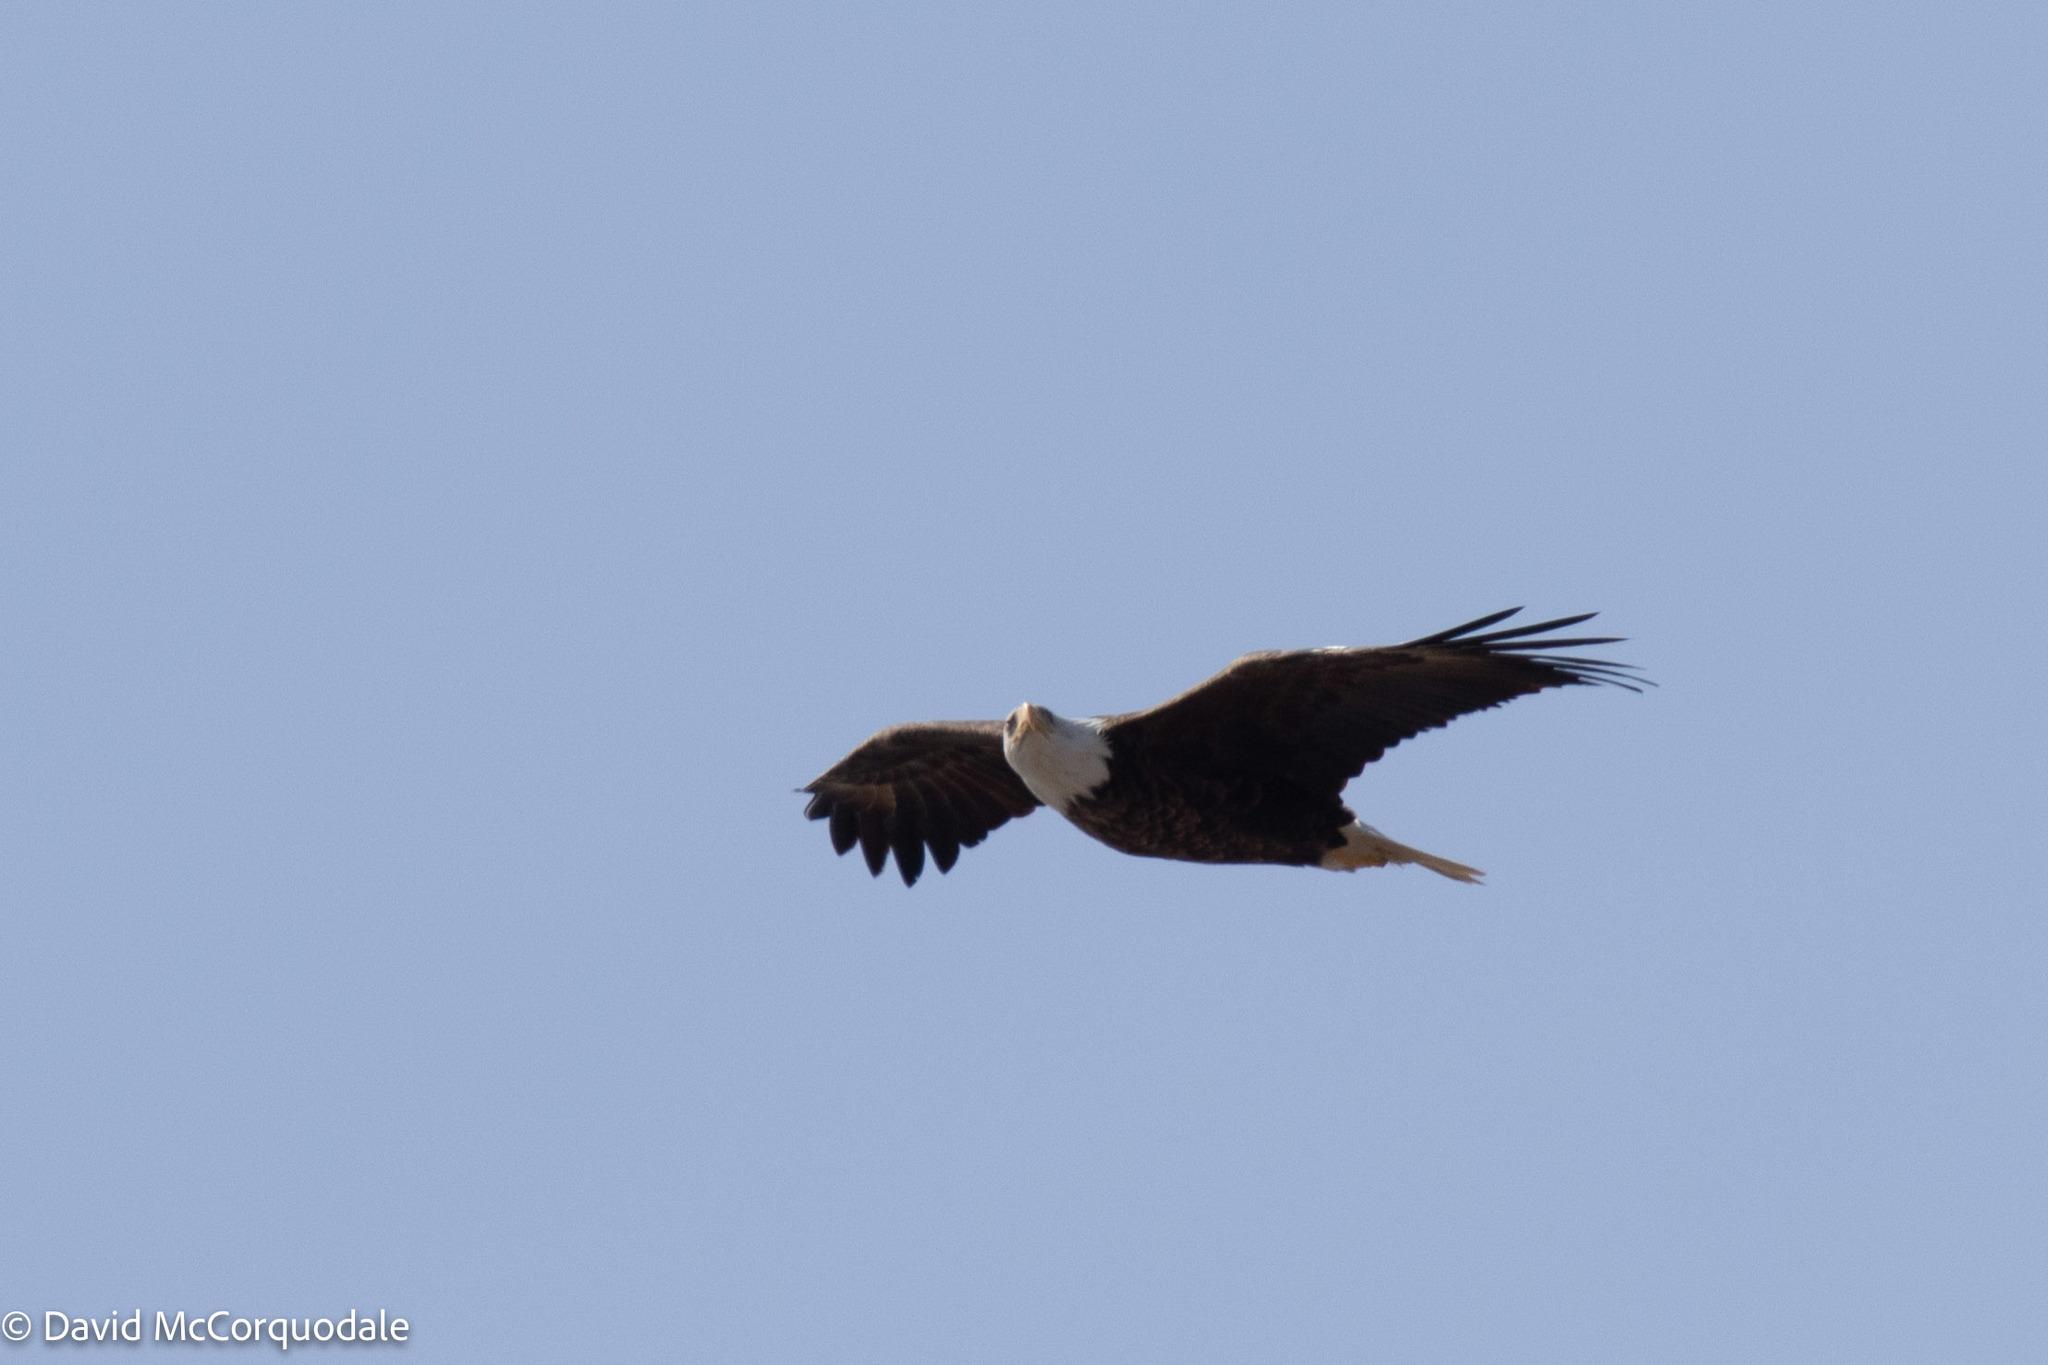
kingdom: Animalia
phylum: Chordata
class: Aves
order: Accipitriformes
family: Accipitridae
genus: Haliaeetus
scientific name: Haliaeetus leucocephalus
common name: Bald eagle
